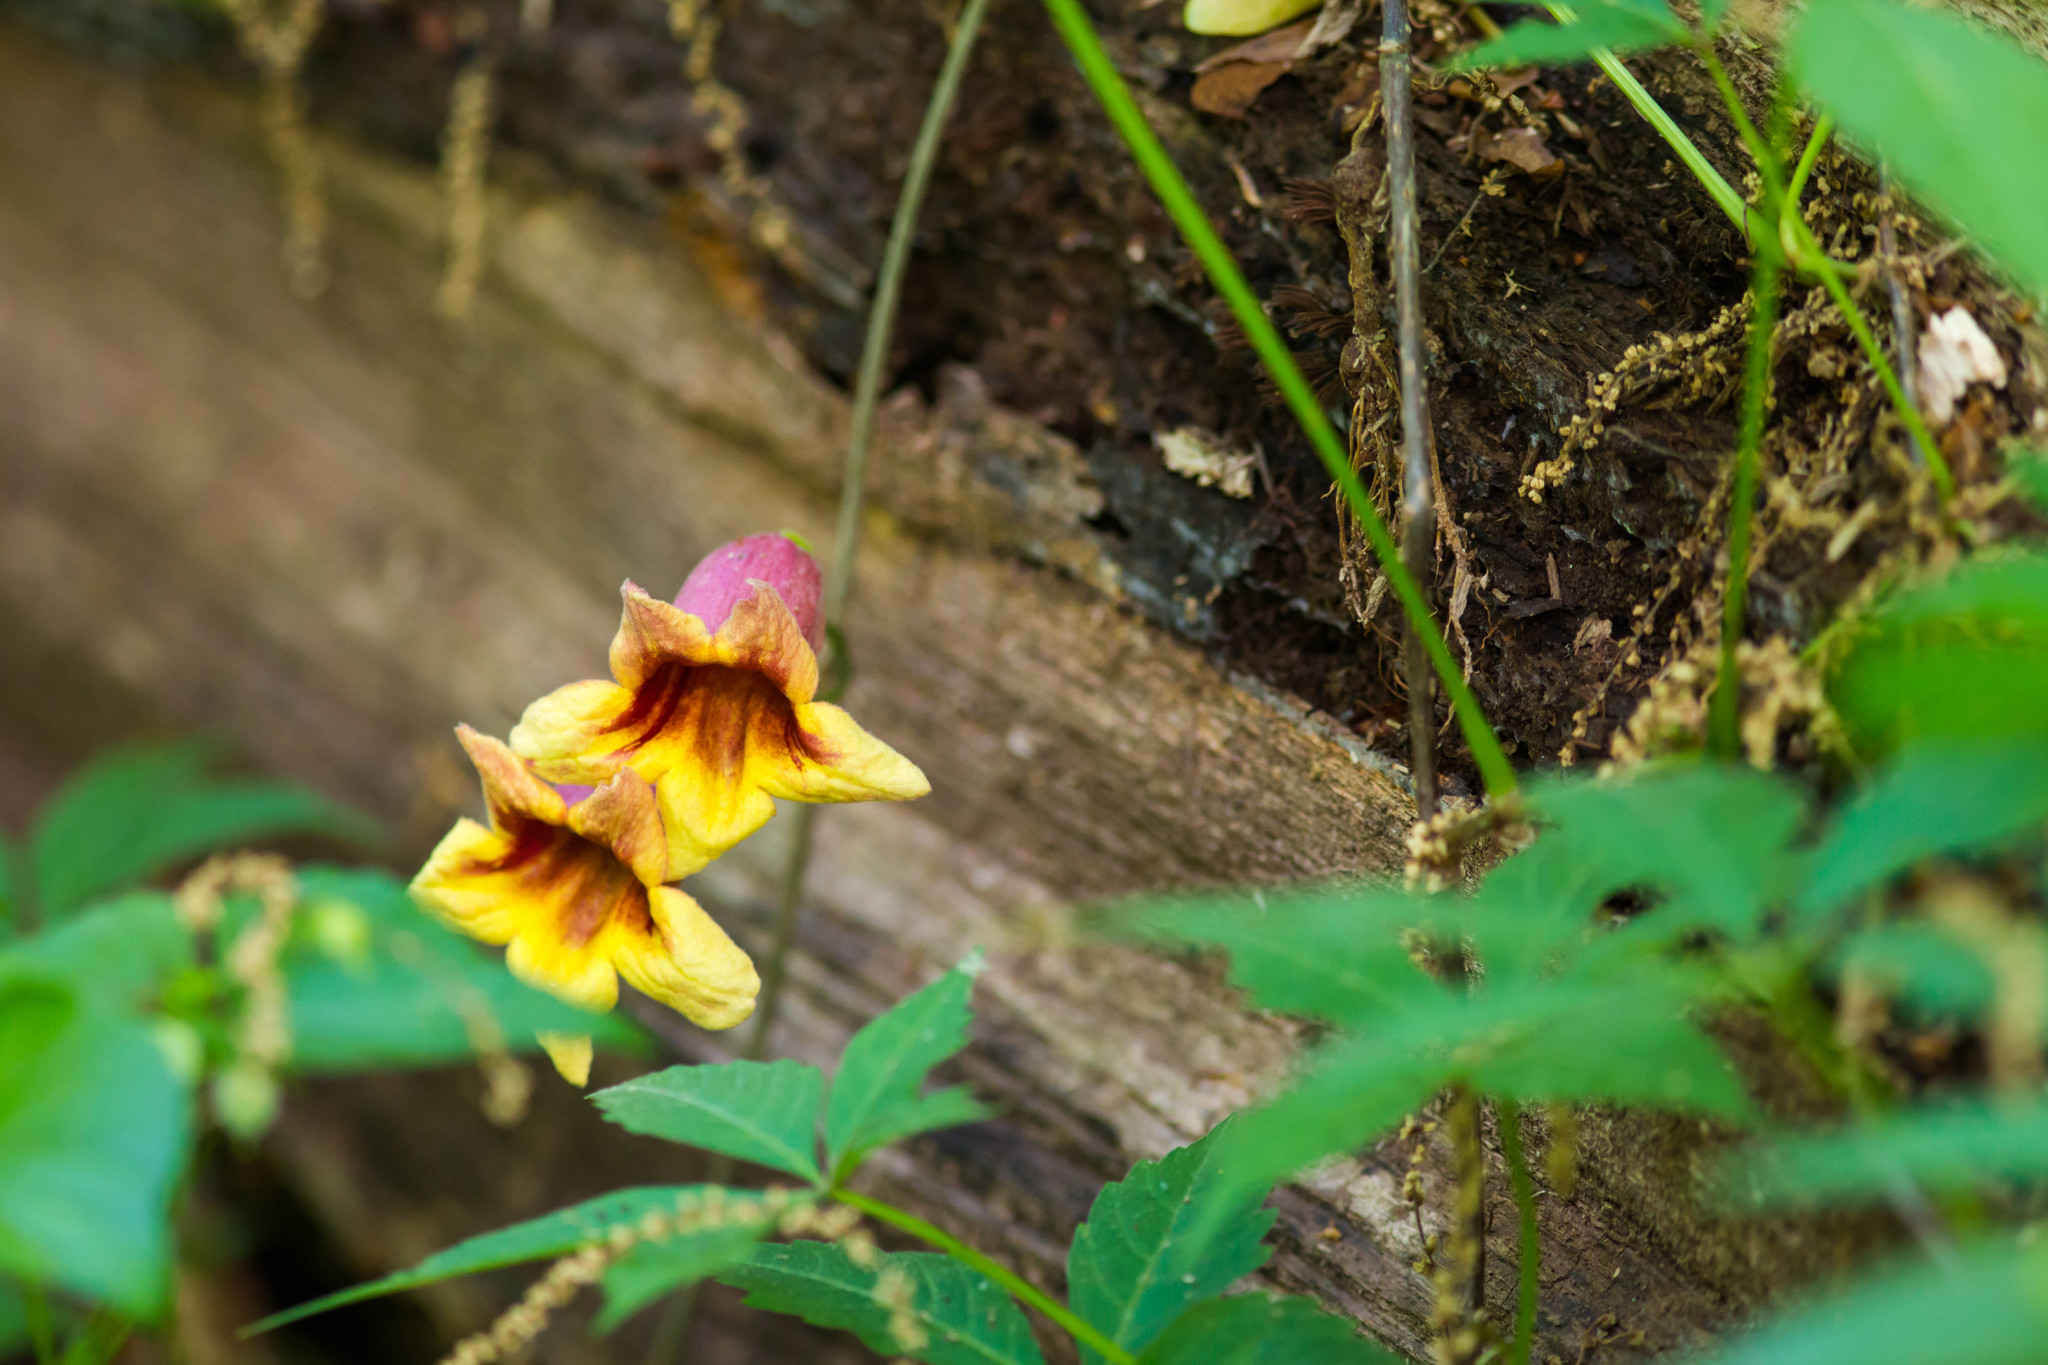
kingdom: Plantae
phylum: Tracheophyta
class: Magnoliopsida
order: Lamiales
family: Bignoniaceae
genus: Bignonia
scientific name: Bignonia capreolata
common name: Crossvine
